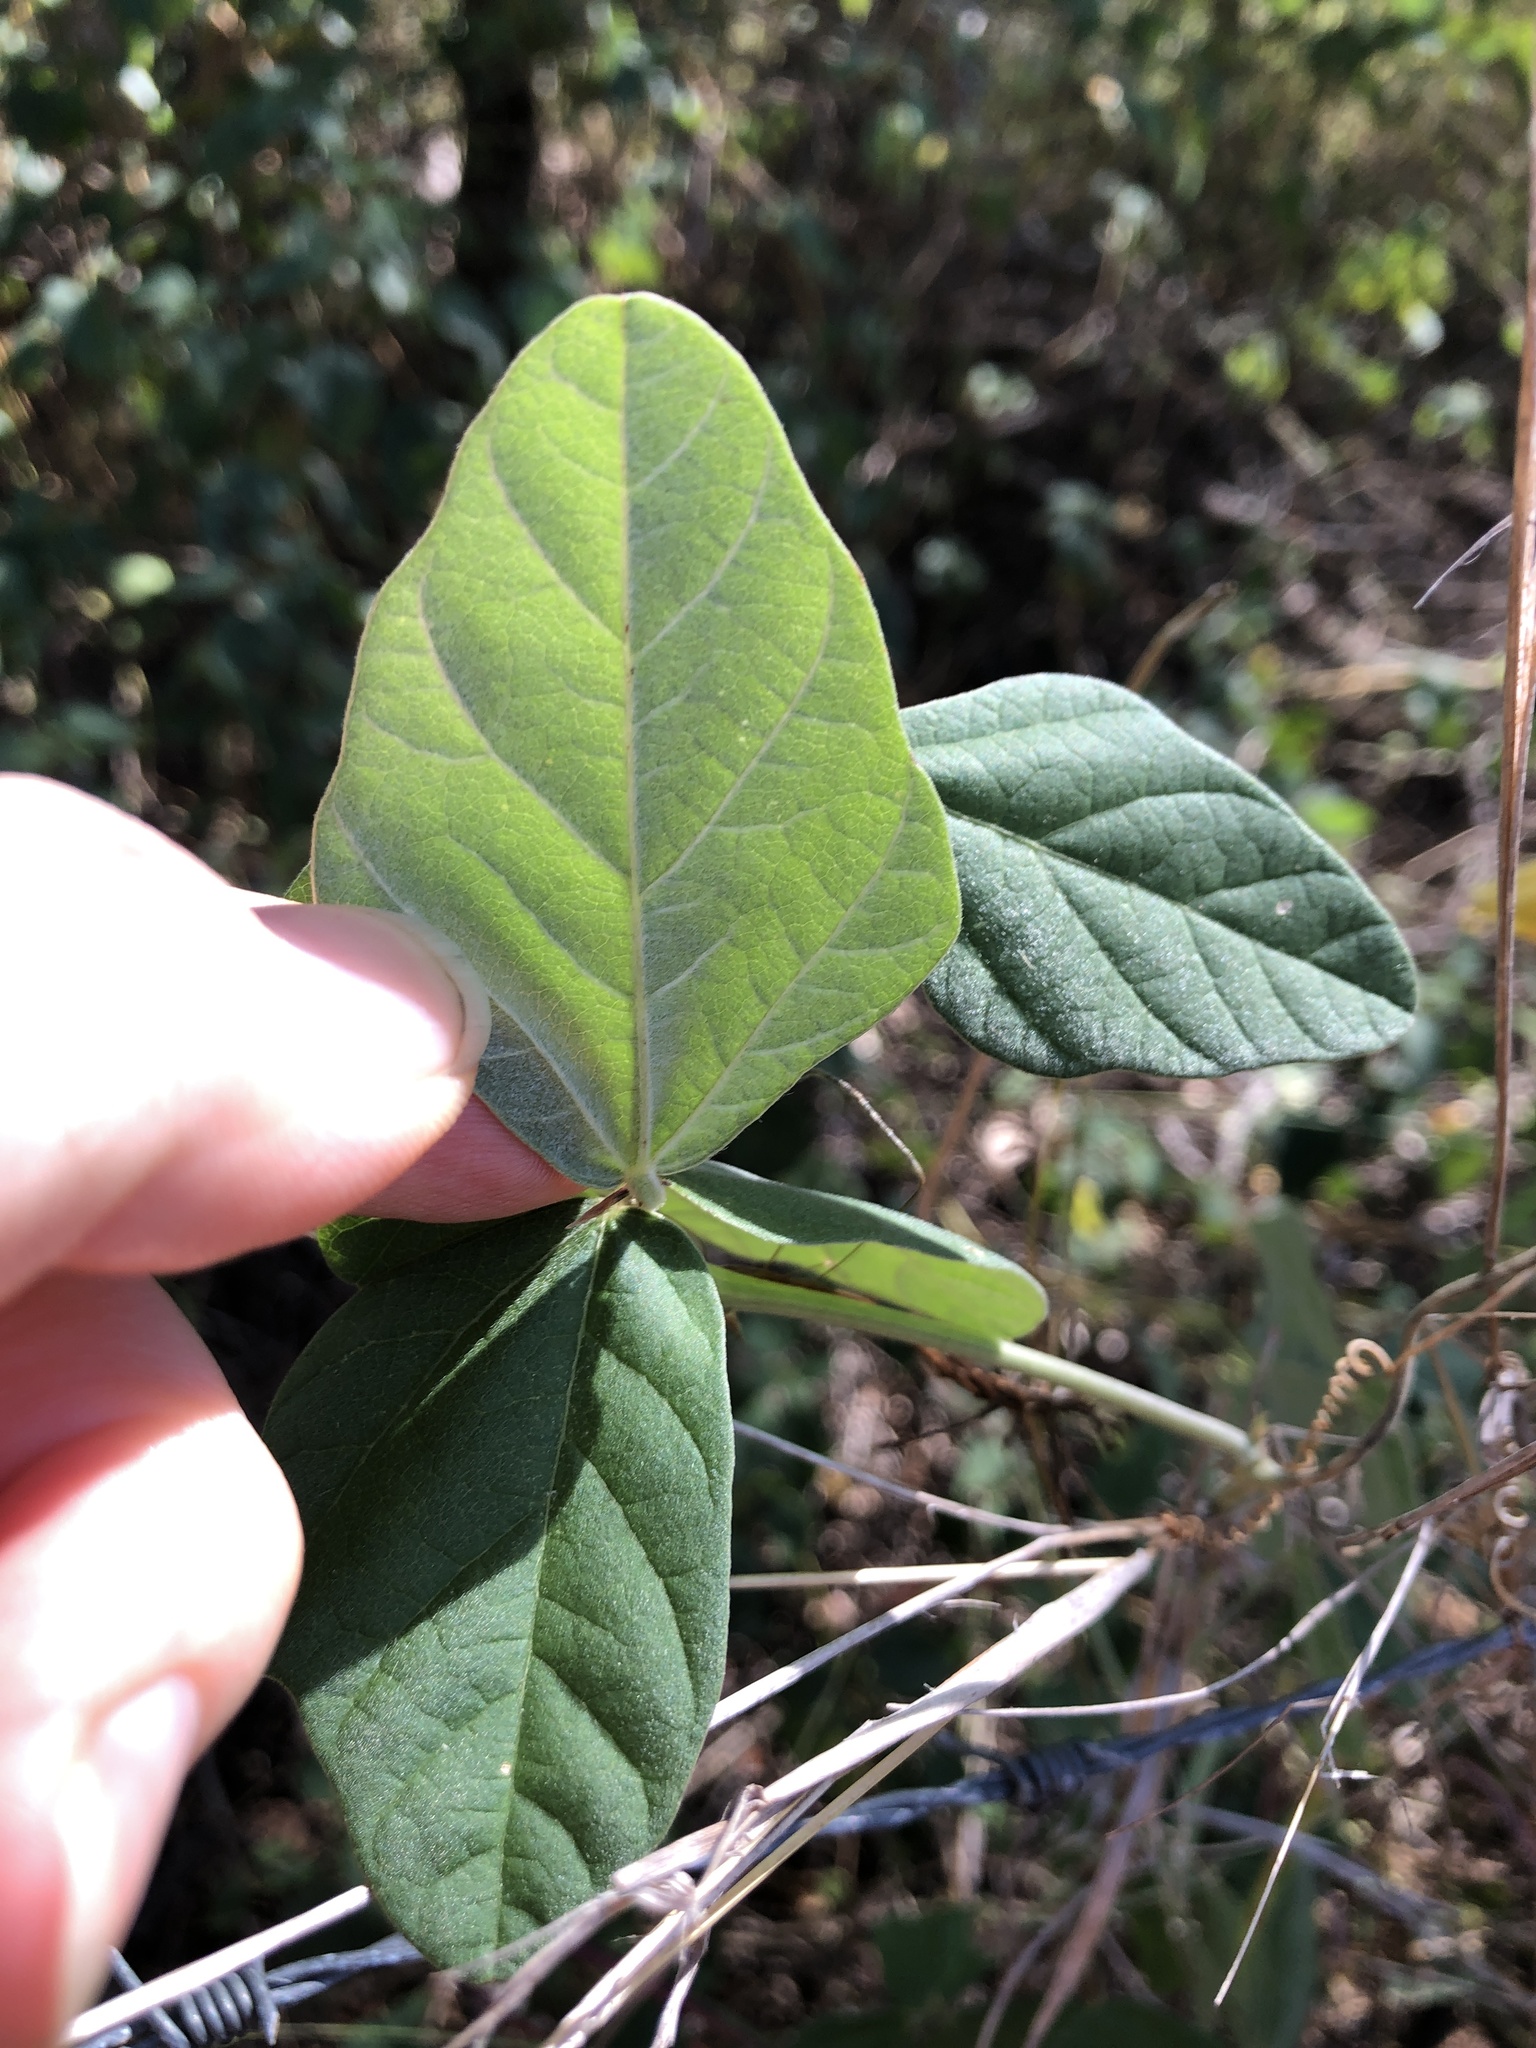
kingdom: Plantae
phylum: Tracheophyta
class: Magnoliopsida
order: Fabales
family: Fabaceae
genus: Macroptilium
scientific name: Macroptilium atropurpureum
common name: Purple bushbean
